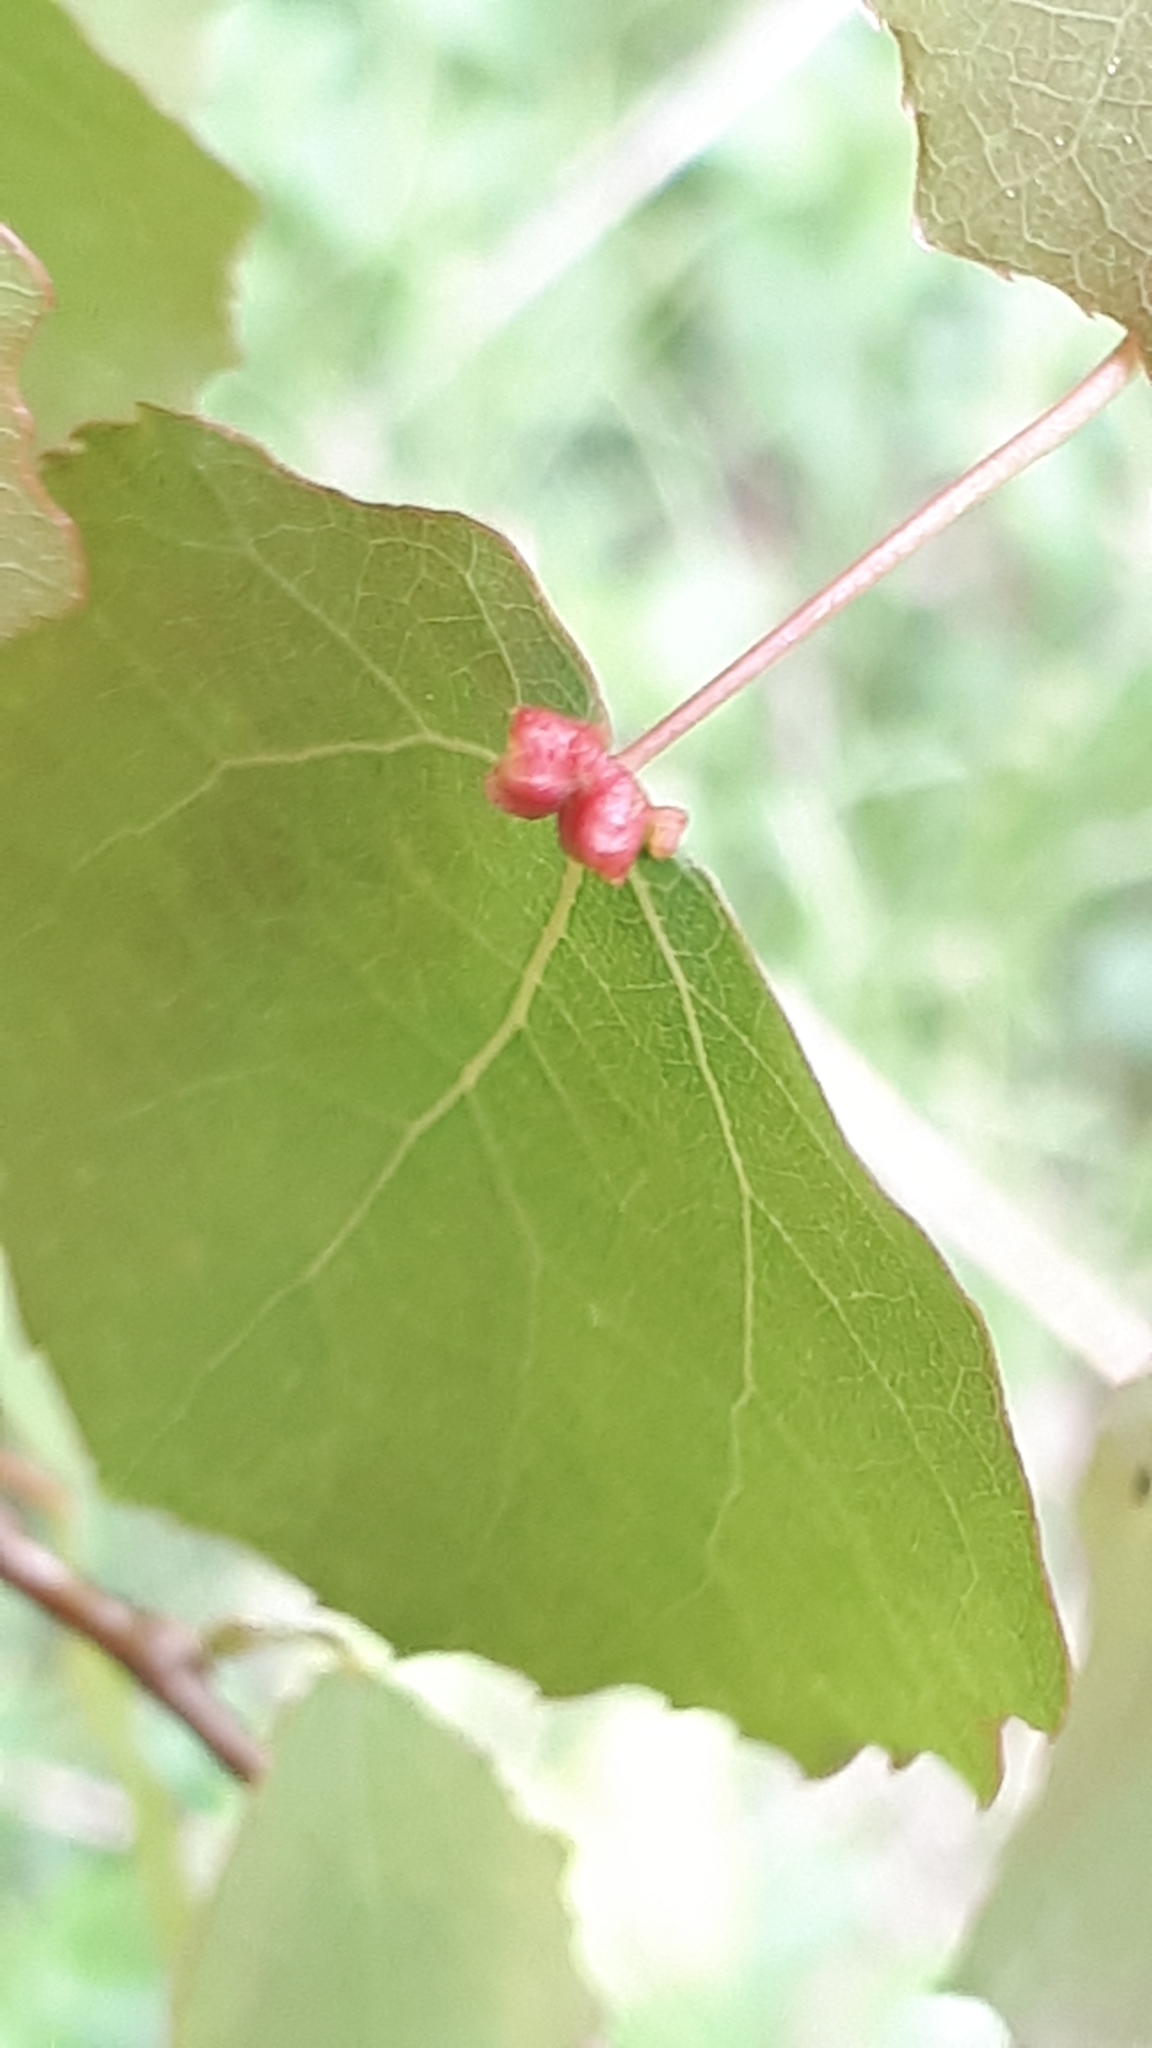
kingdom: Animalia
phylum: Arthropoda
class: Arachnida
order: Trombidiformes
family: Eriophyidae
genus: Eriophyes
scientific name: Eriophyes diversipunctatus
